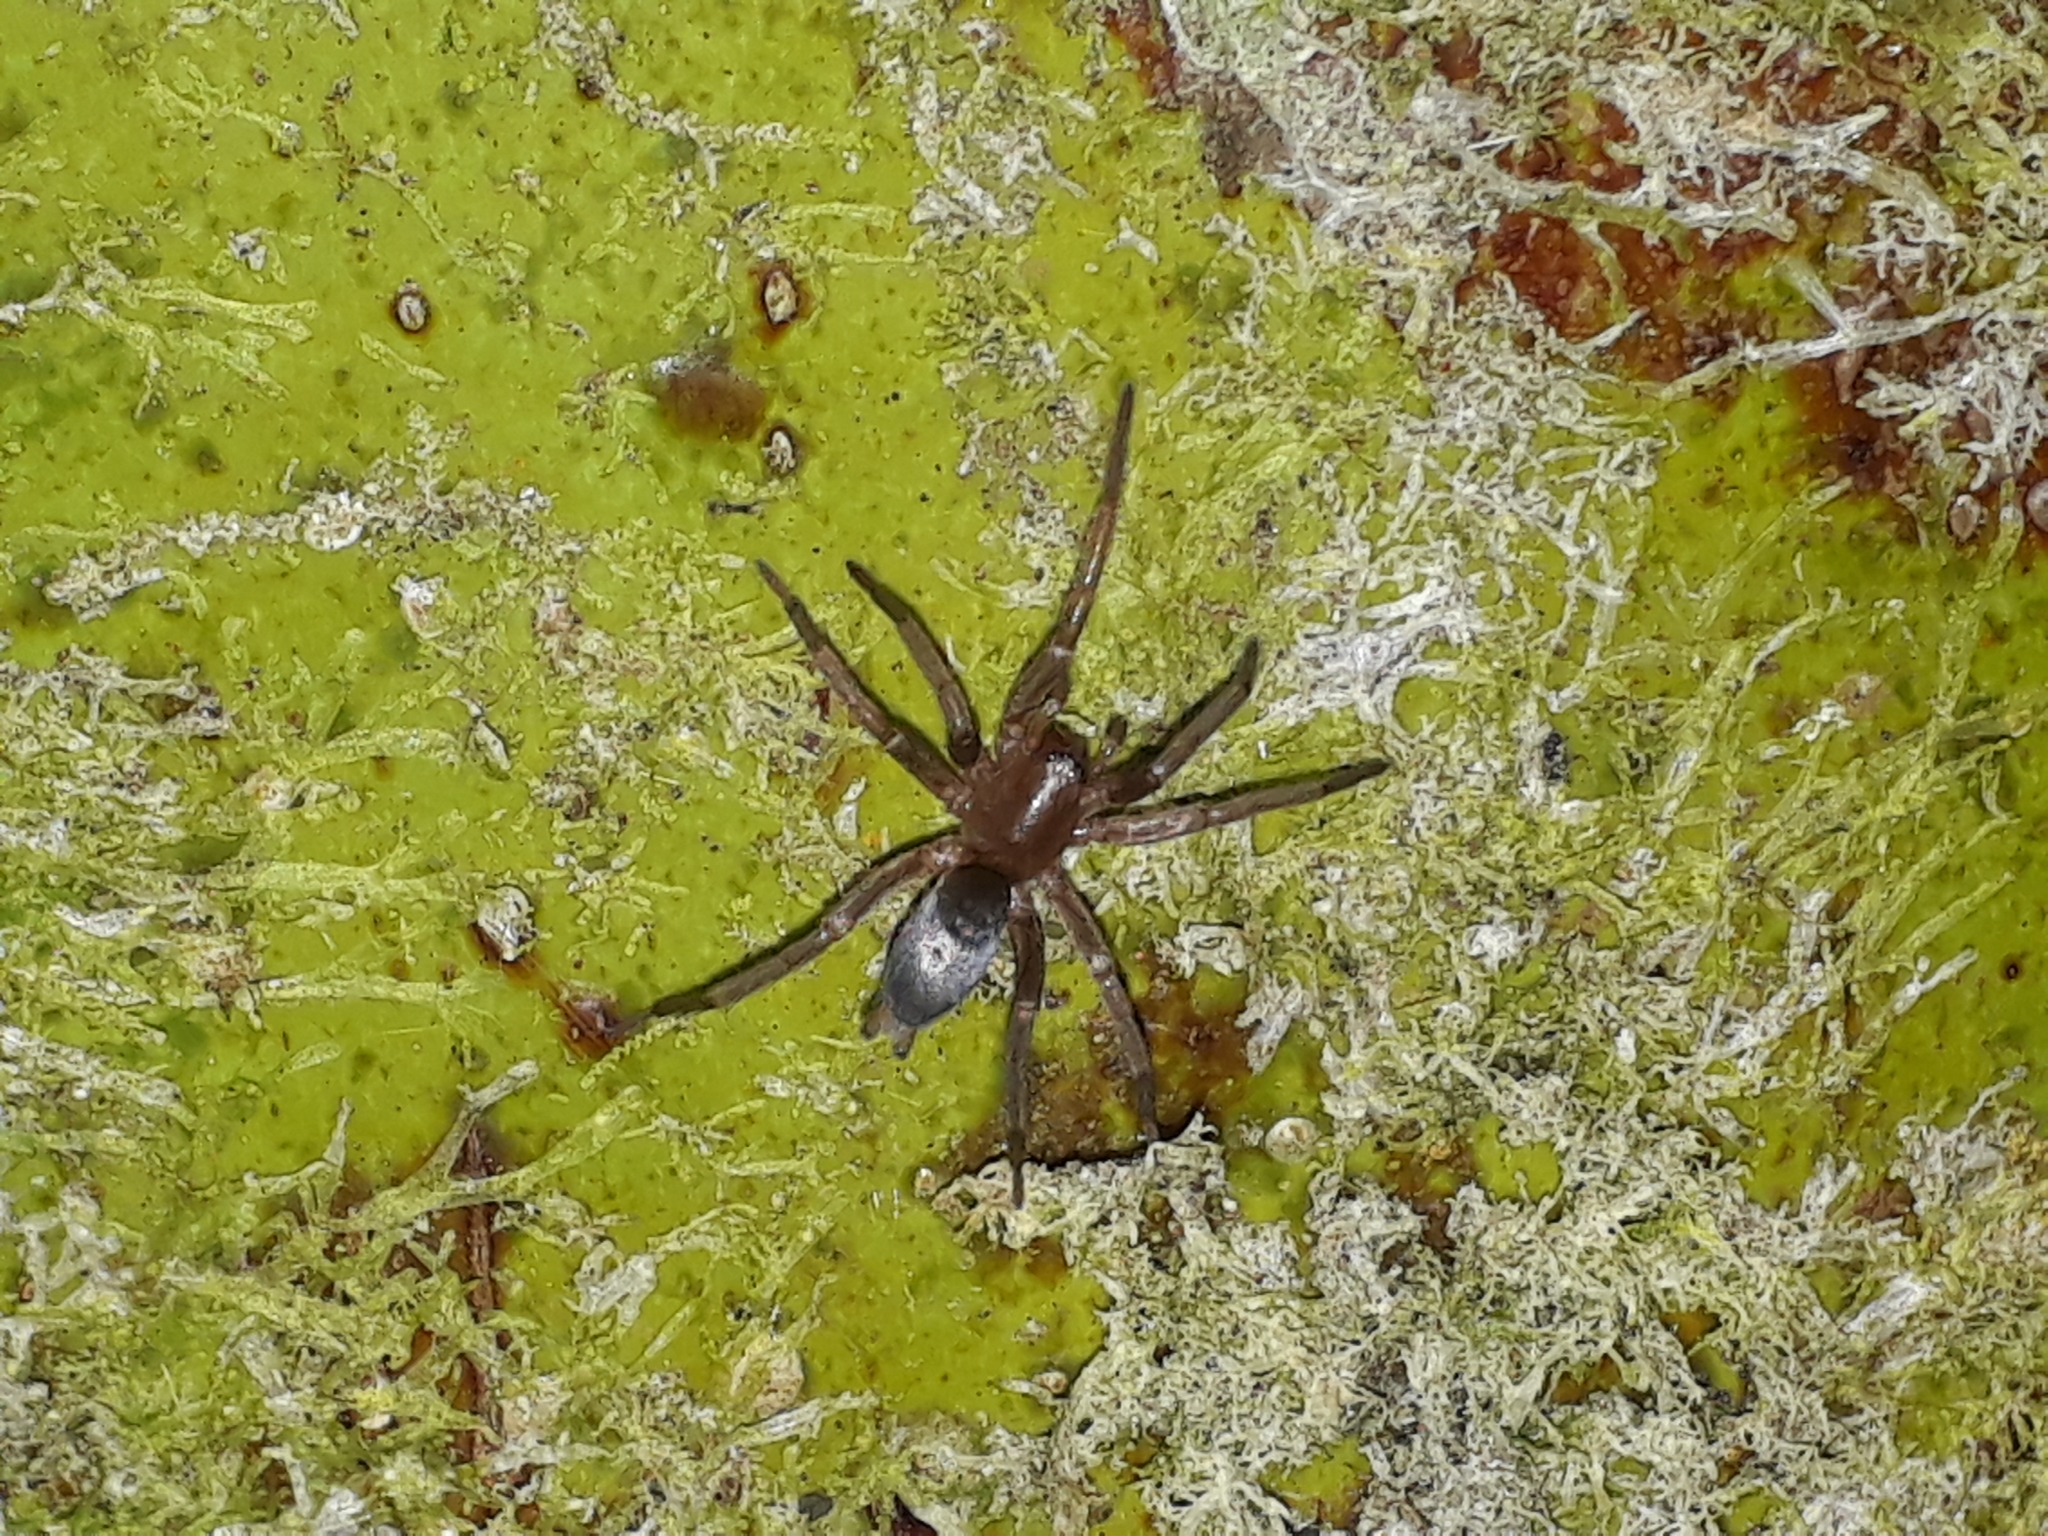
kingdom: Animalia
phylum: Arthropoda
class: Arachnida
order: Araneae
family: Gnaphosidae
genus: Hypodrassodes
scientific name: Hypodrassodes maoricus
